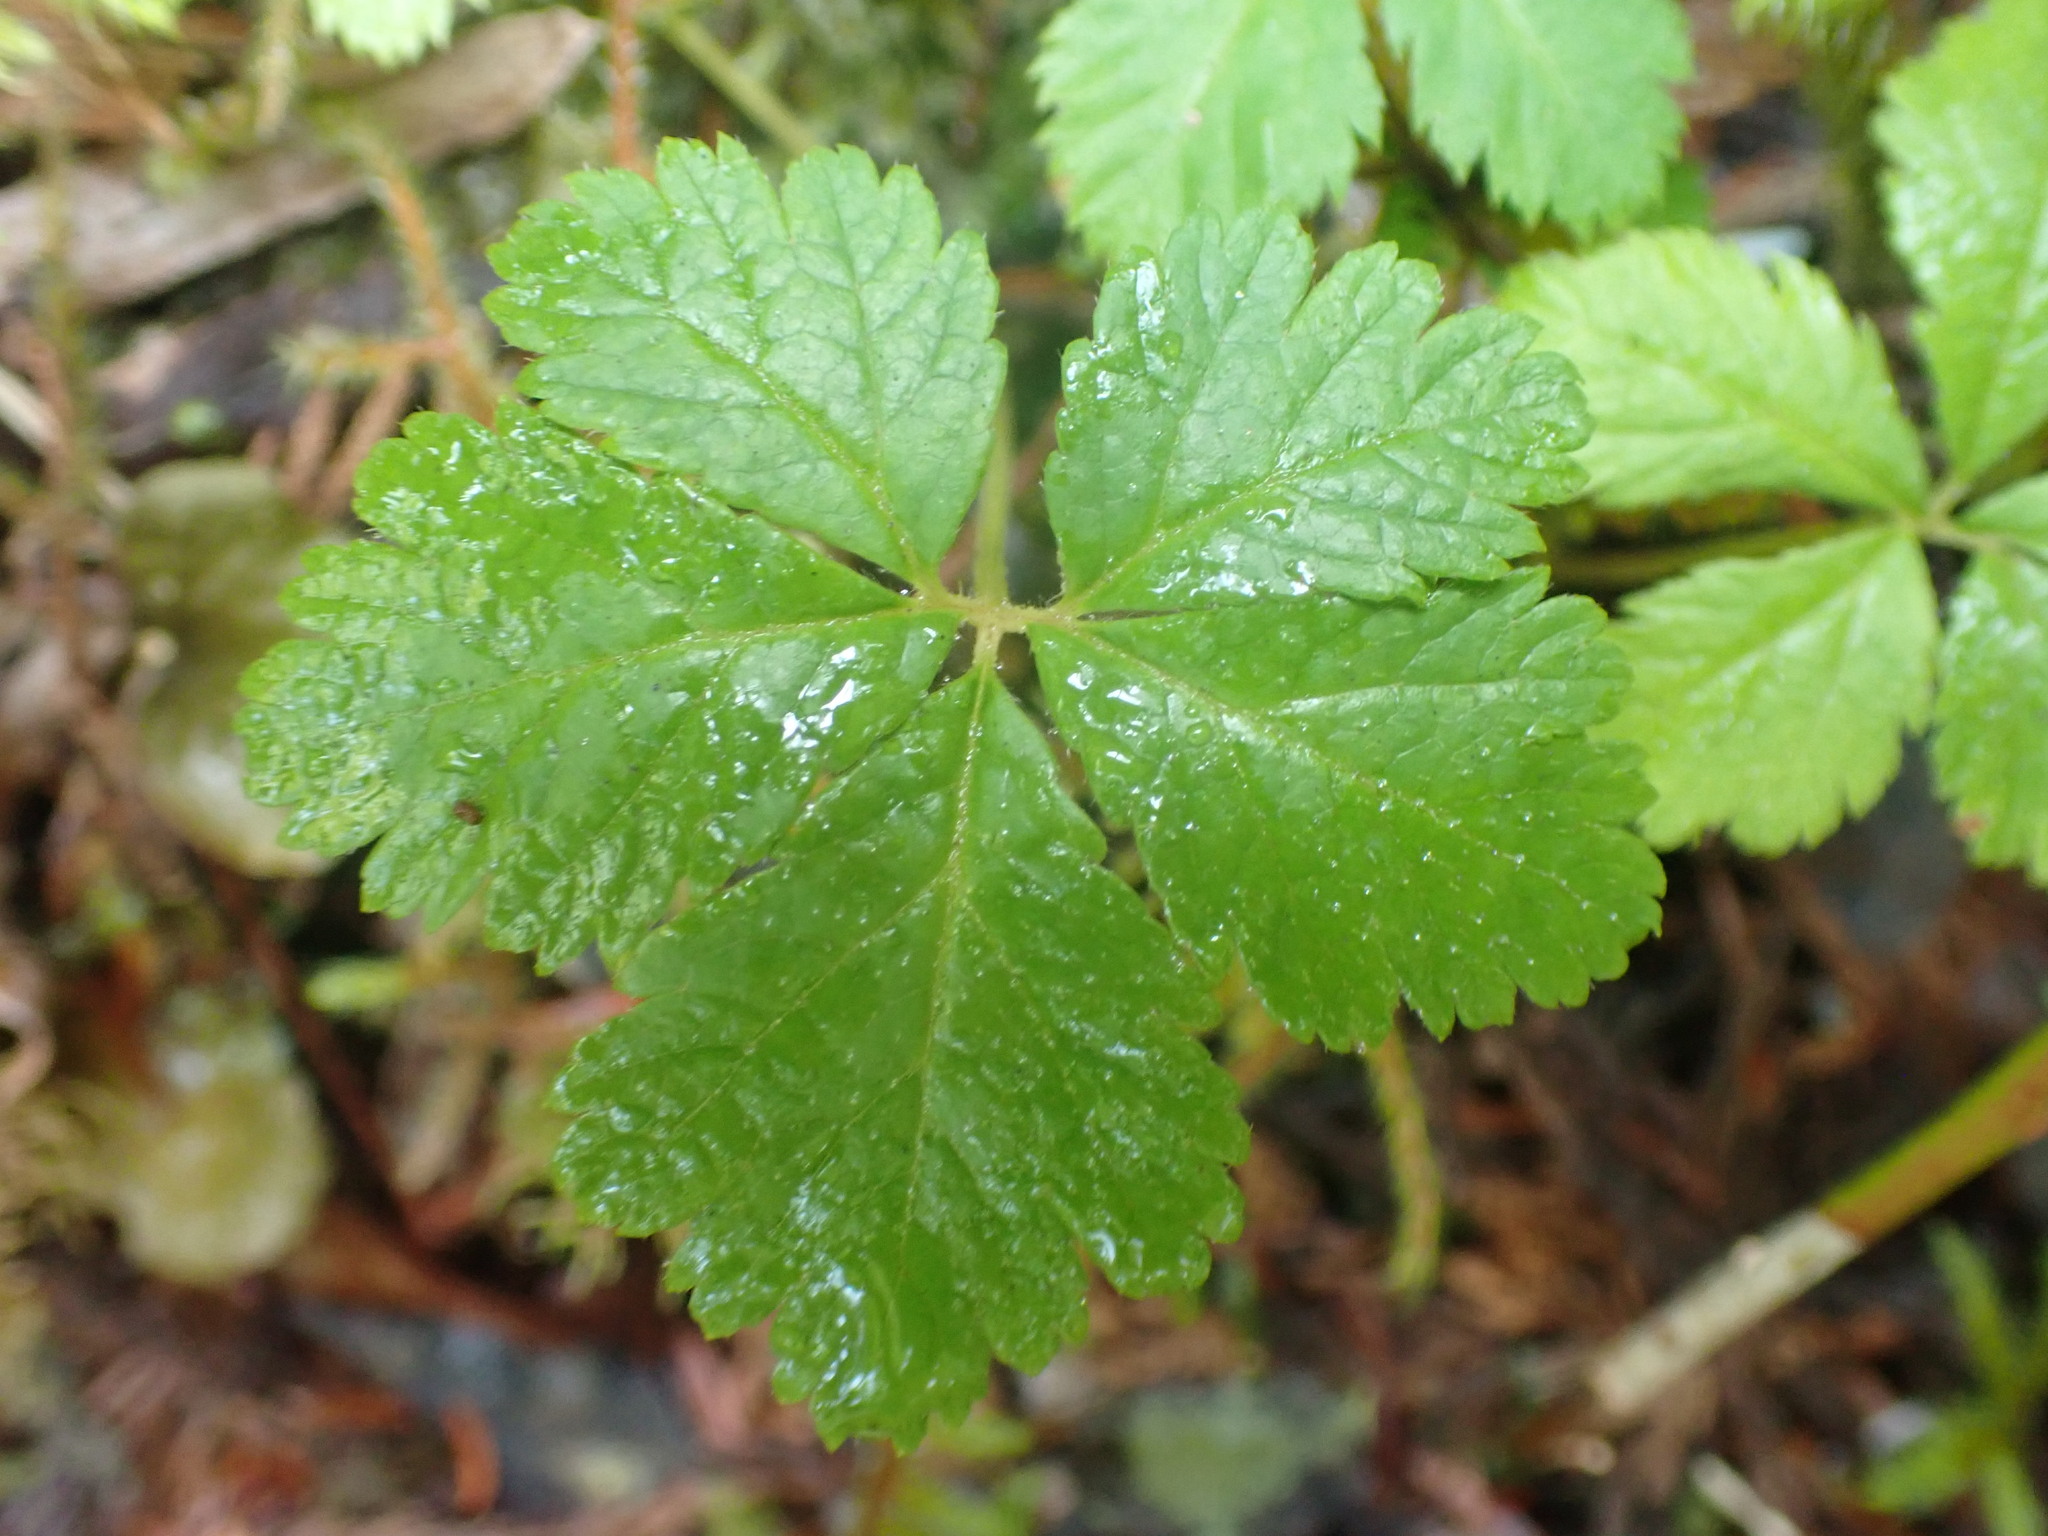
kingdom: Plantae
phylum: Tracheophyta
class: Magnoliopsida
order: Rosales
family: Rosaceae
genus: Rubus
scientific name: Rubus pedatus
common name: Creeping raspberry
